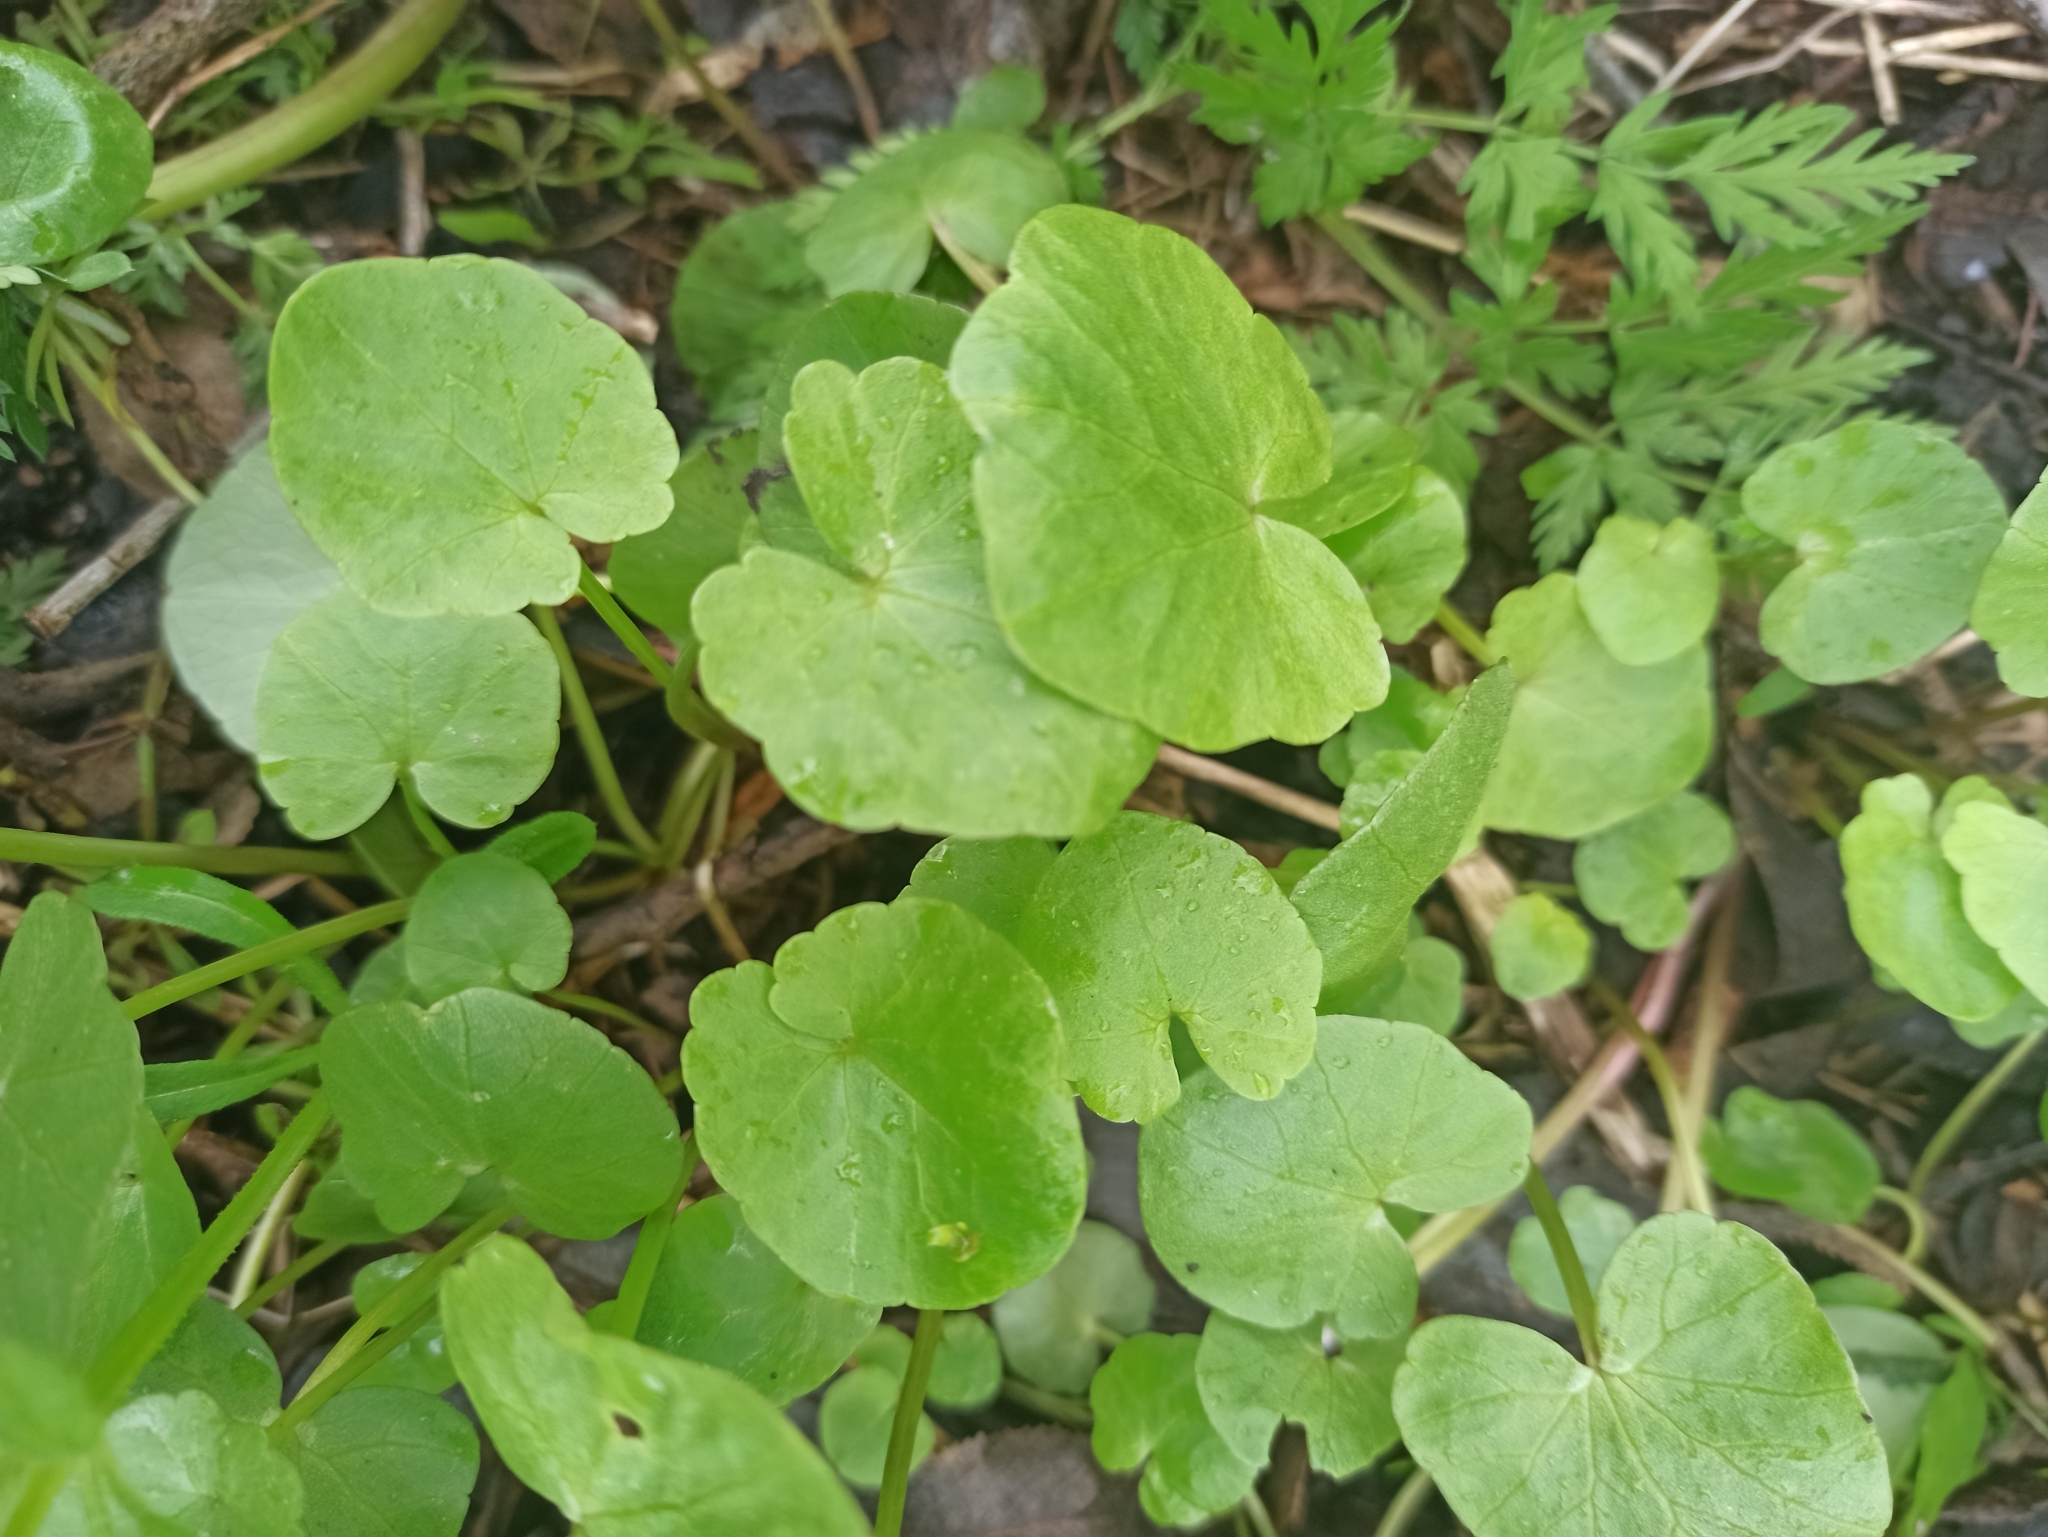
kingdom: Plantae
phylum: Tracheophyta
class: Magnoliopsida
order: Ranunculales
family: Ranunculaceae
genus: Ficaria
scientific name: Ficaria verna
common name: Lesser celandine
